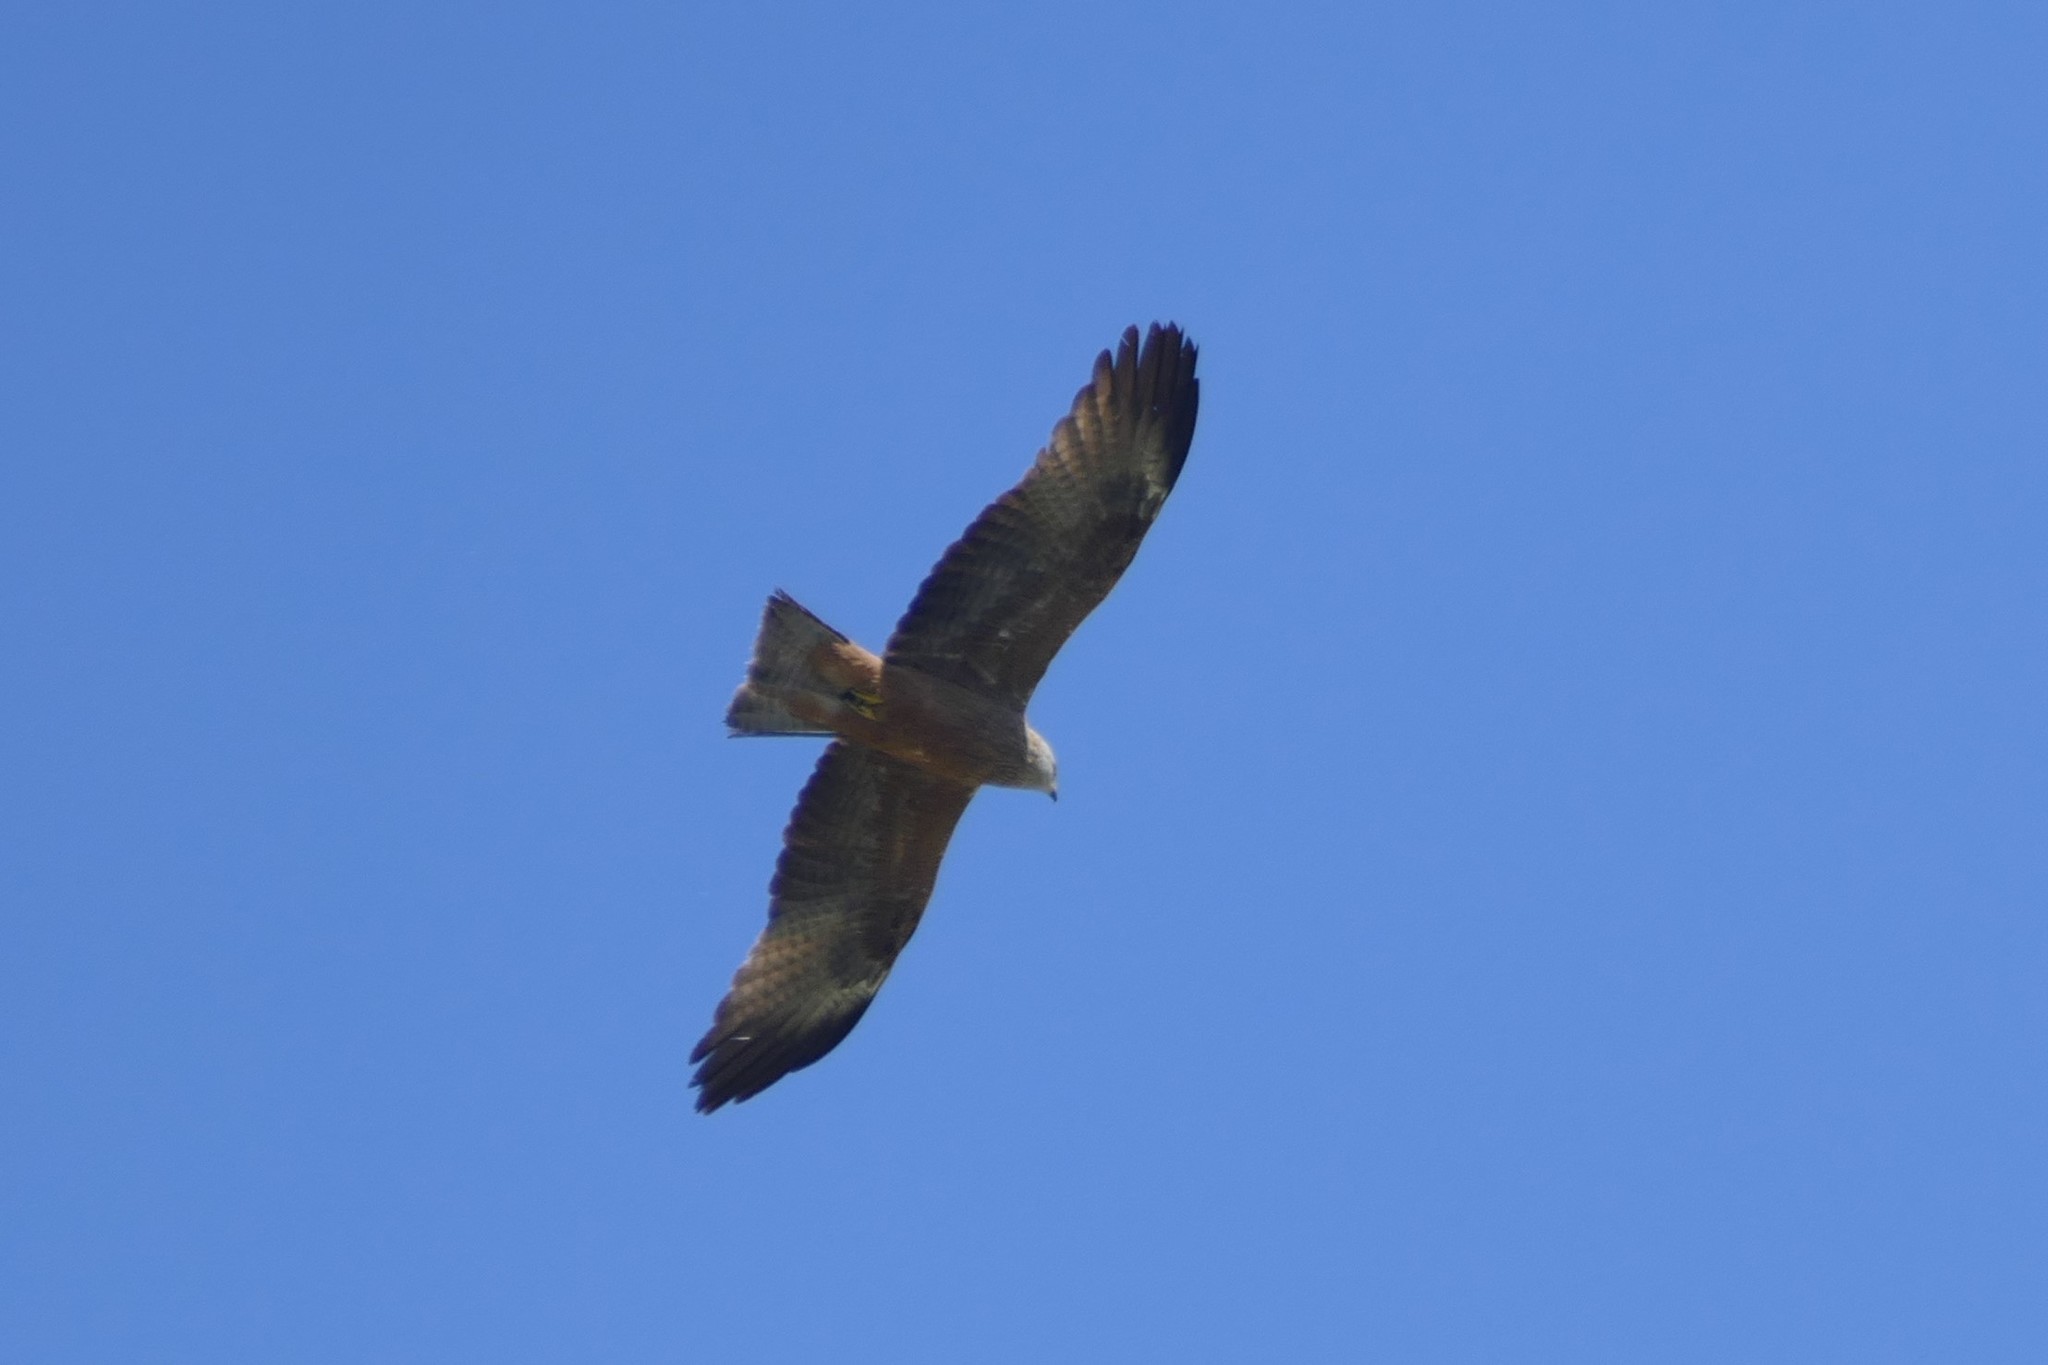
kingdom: Animalia
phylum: Chordata
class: Aves
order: Accipitriformes
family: Accipitridae
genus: Milvus
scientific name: Milvus migrans
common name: Black kite
